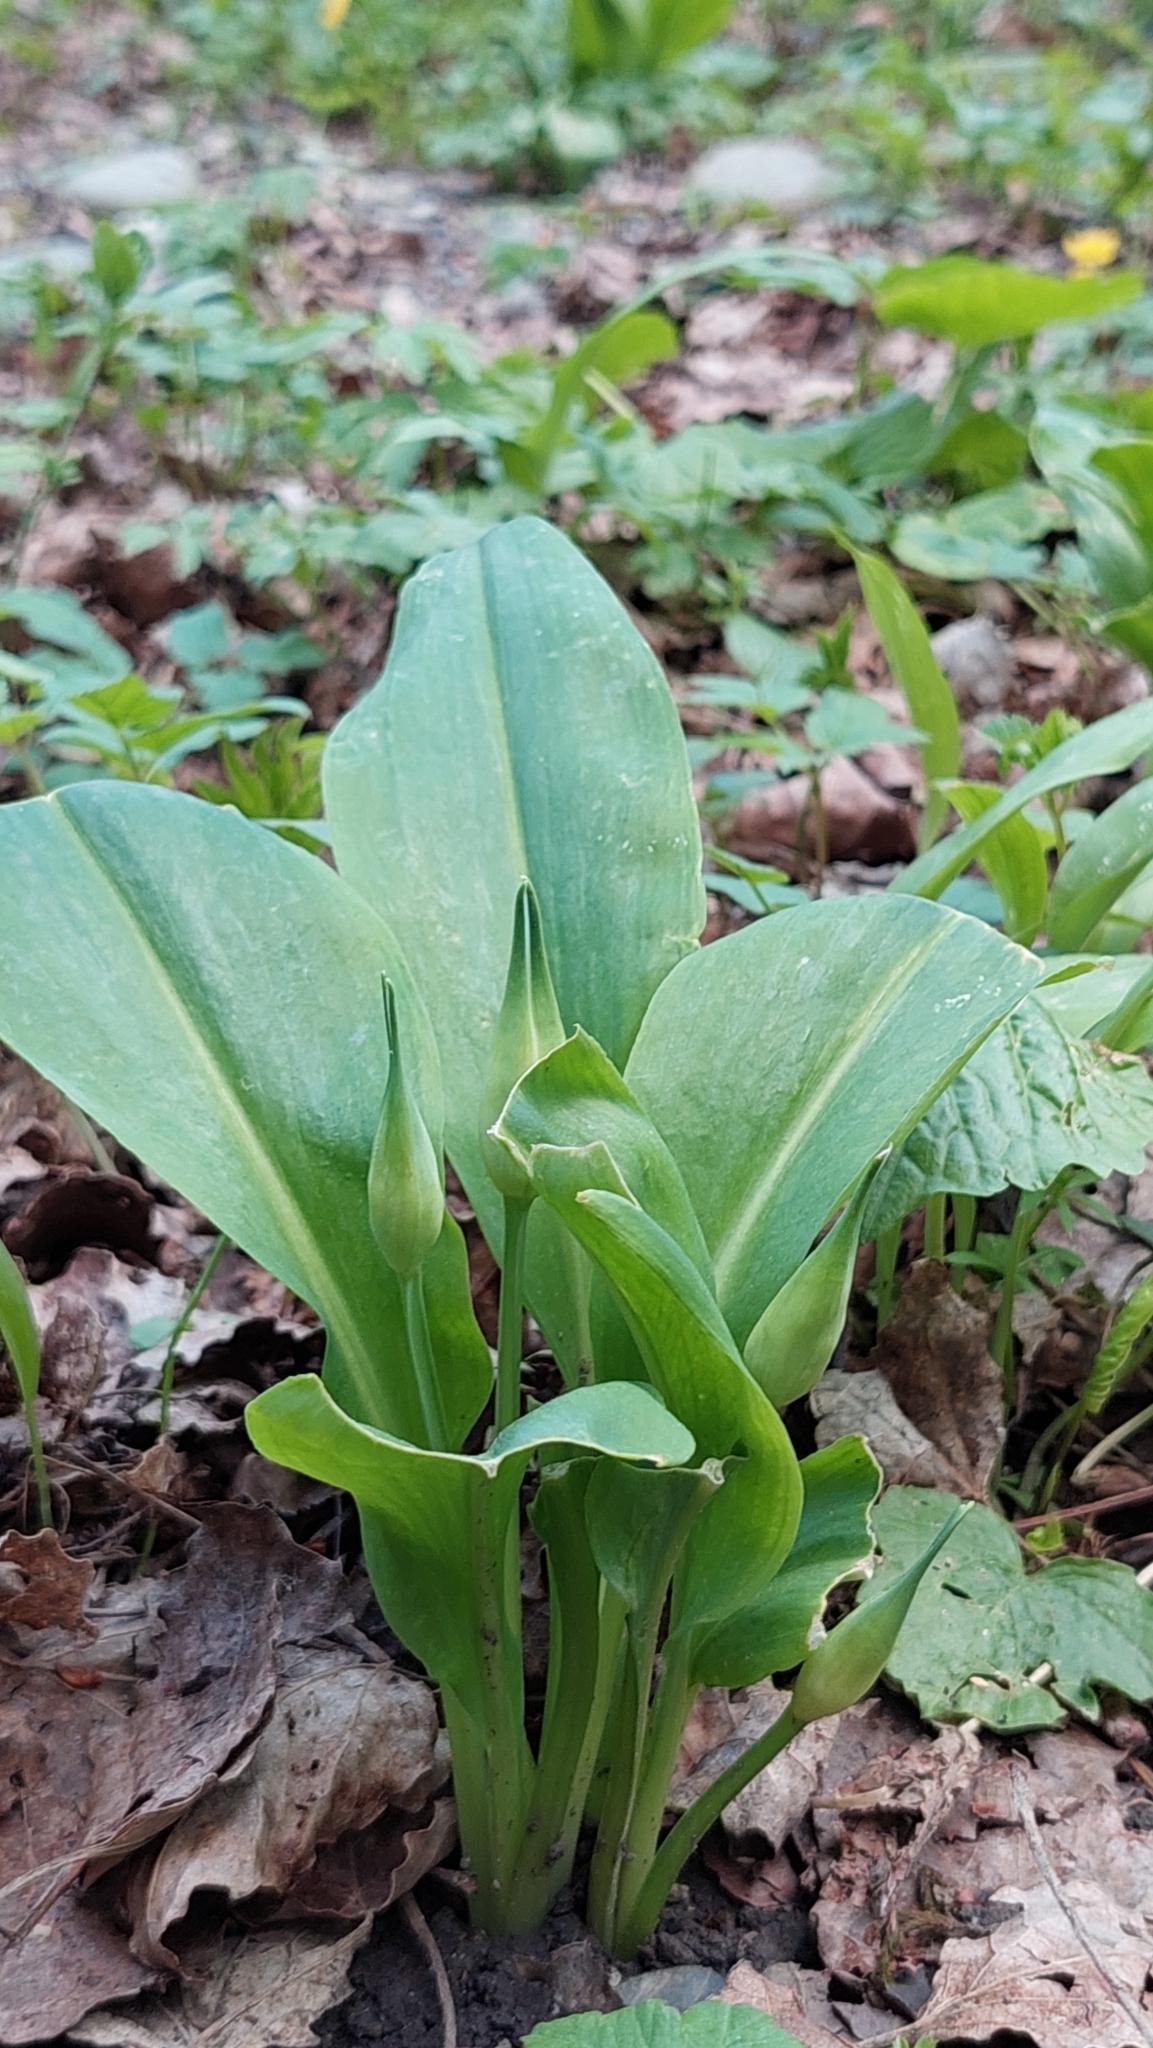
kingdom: Plantae
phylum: Tracheophyta
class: Liliopsida
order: Asparagales
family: Amaryllidaceae
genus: Allium
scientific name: Allium ursinum
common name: Ramsons
